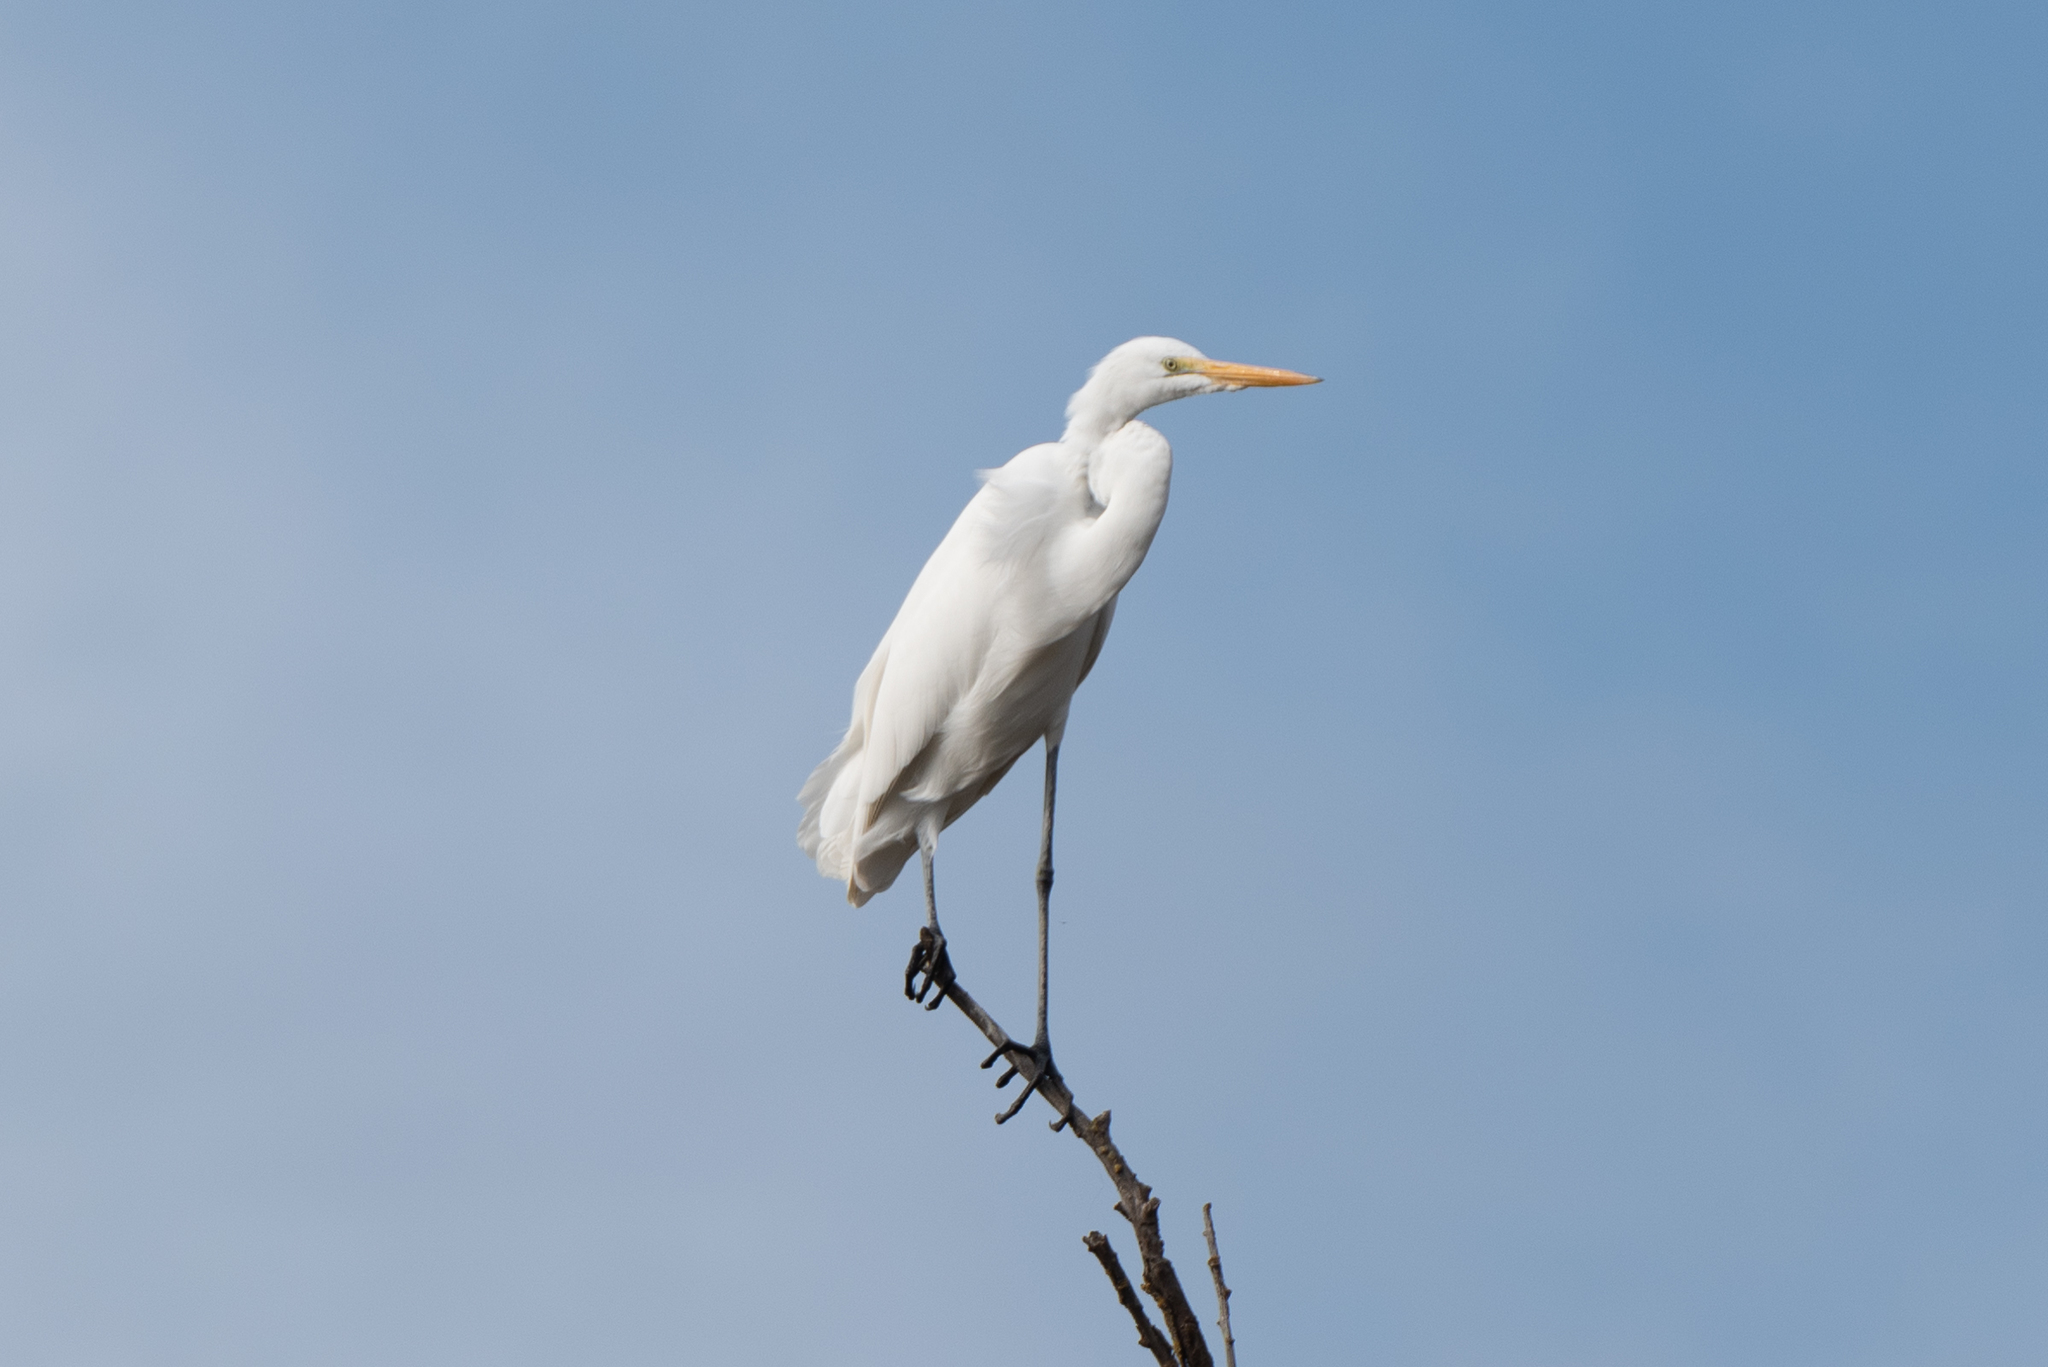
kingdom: Animalia
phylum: Chordata
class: Aves
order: Pelecaniformes
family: Ardeidae
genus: Ardea
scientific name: Ardea alba
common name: Great egret
